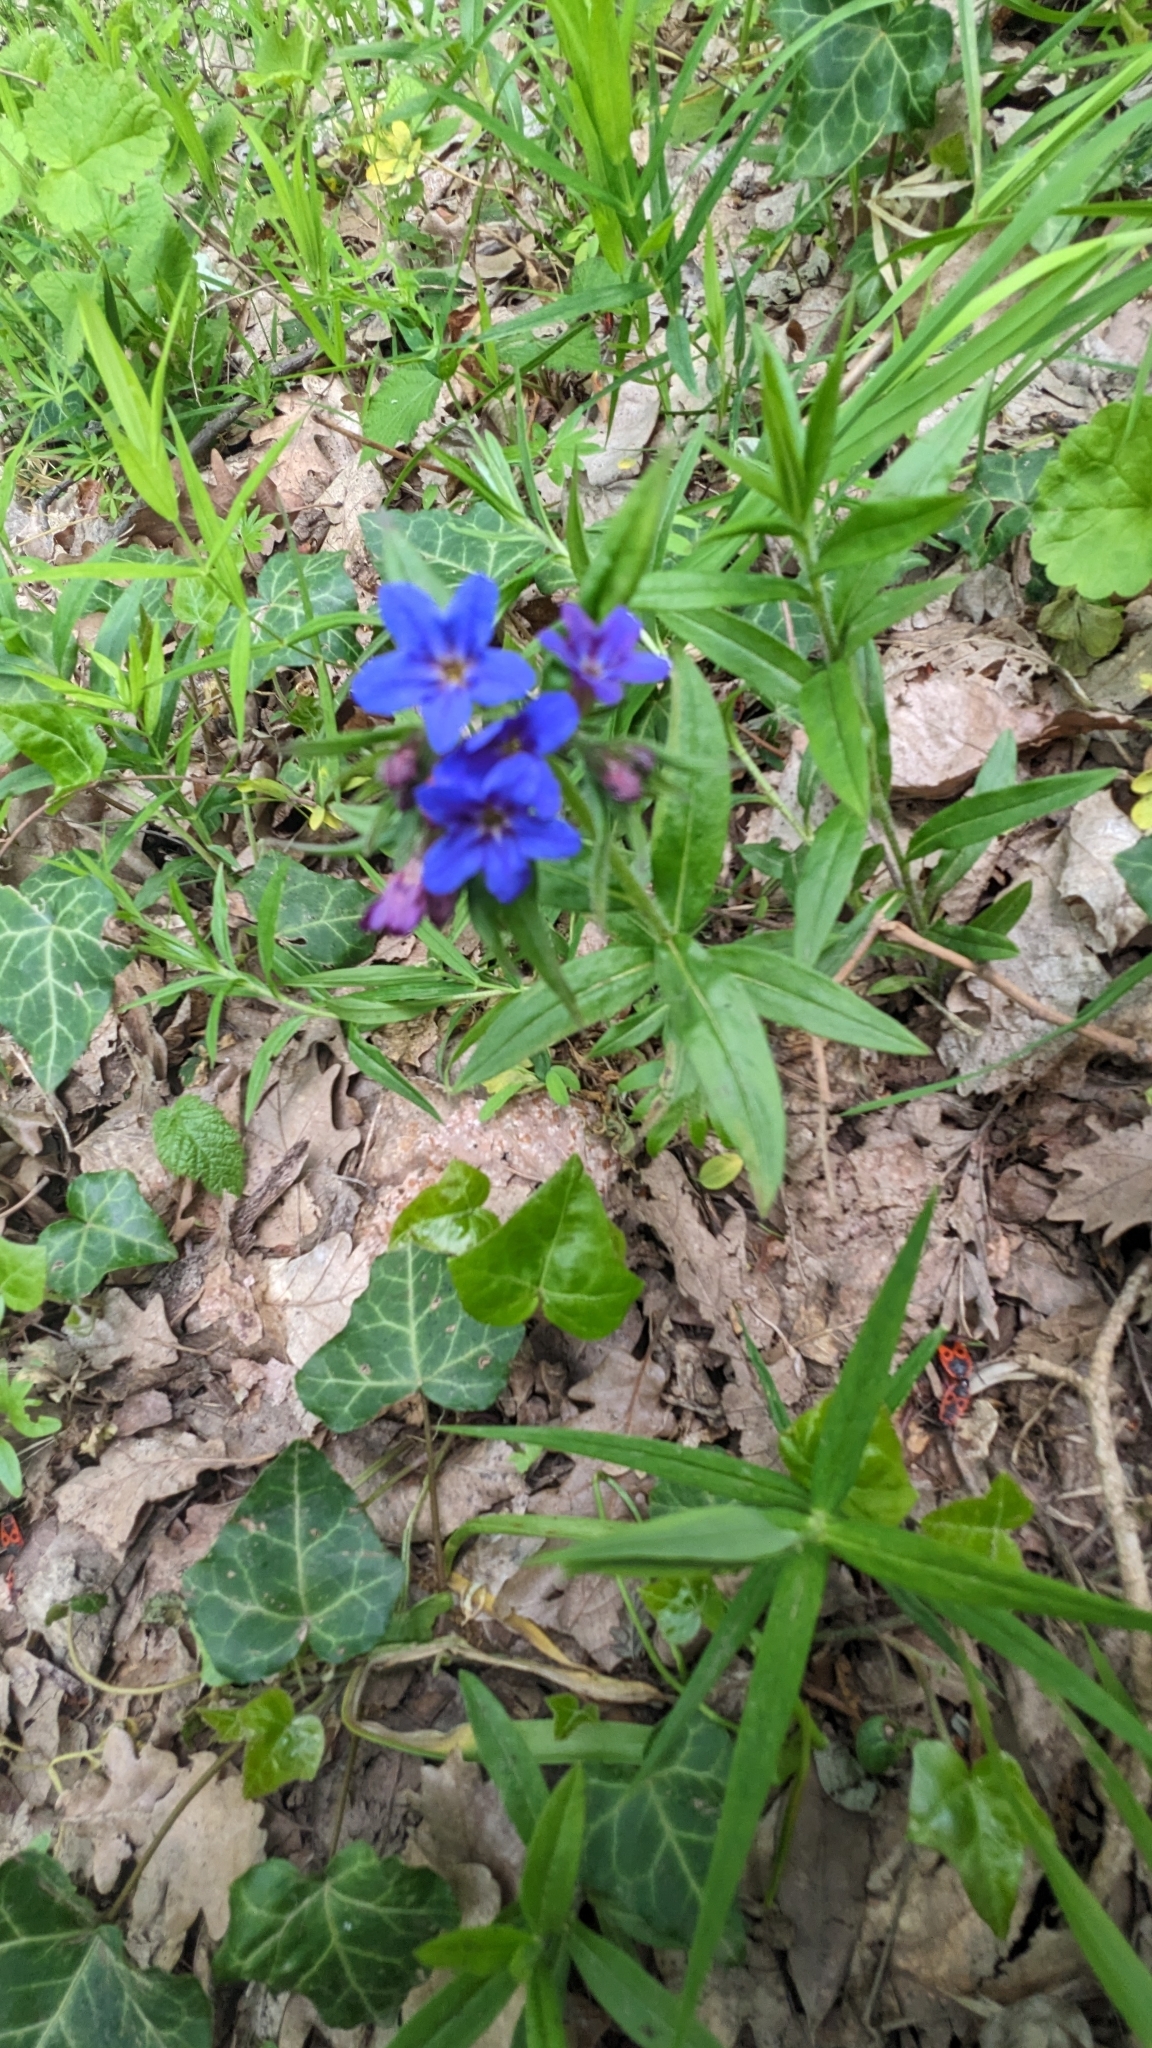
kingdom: Plantae
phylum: Tracheophyta
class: Magnoliopsida
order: Boraginales
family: Boraginaceae
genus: Aegonychon
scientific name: Aegonychon purpurocaeruleum
